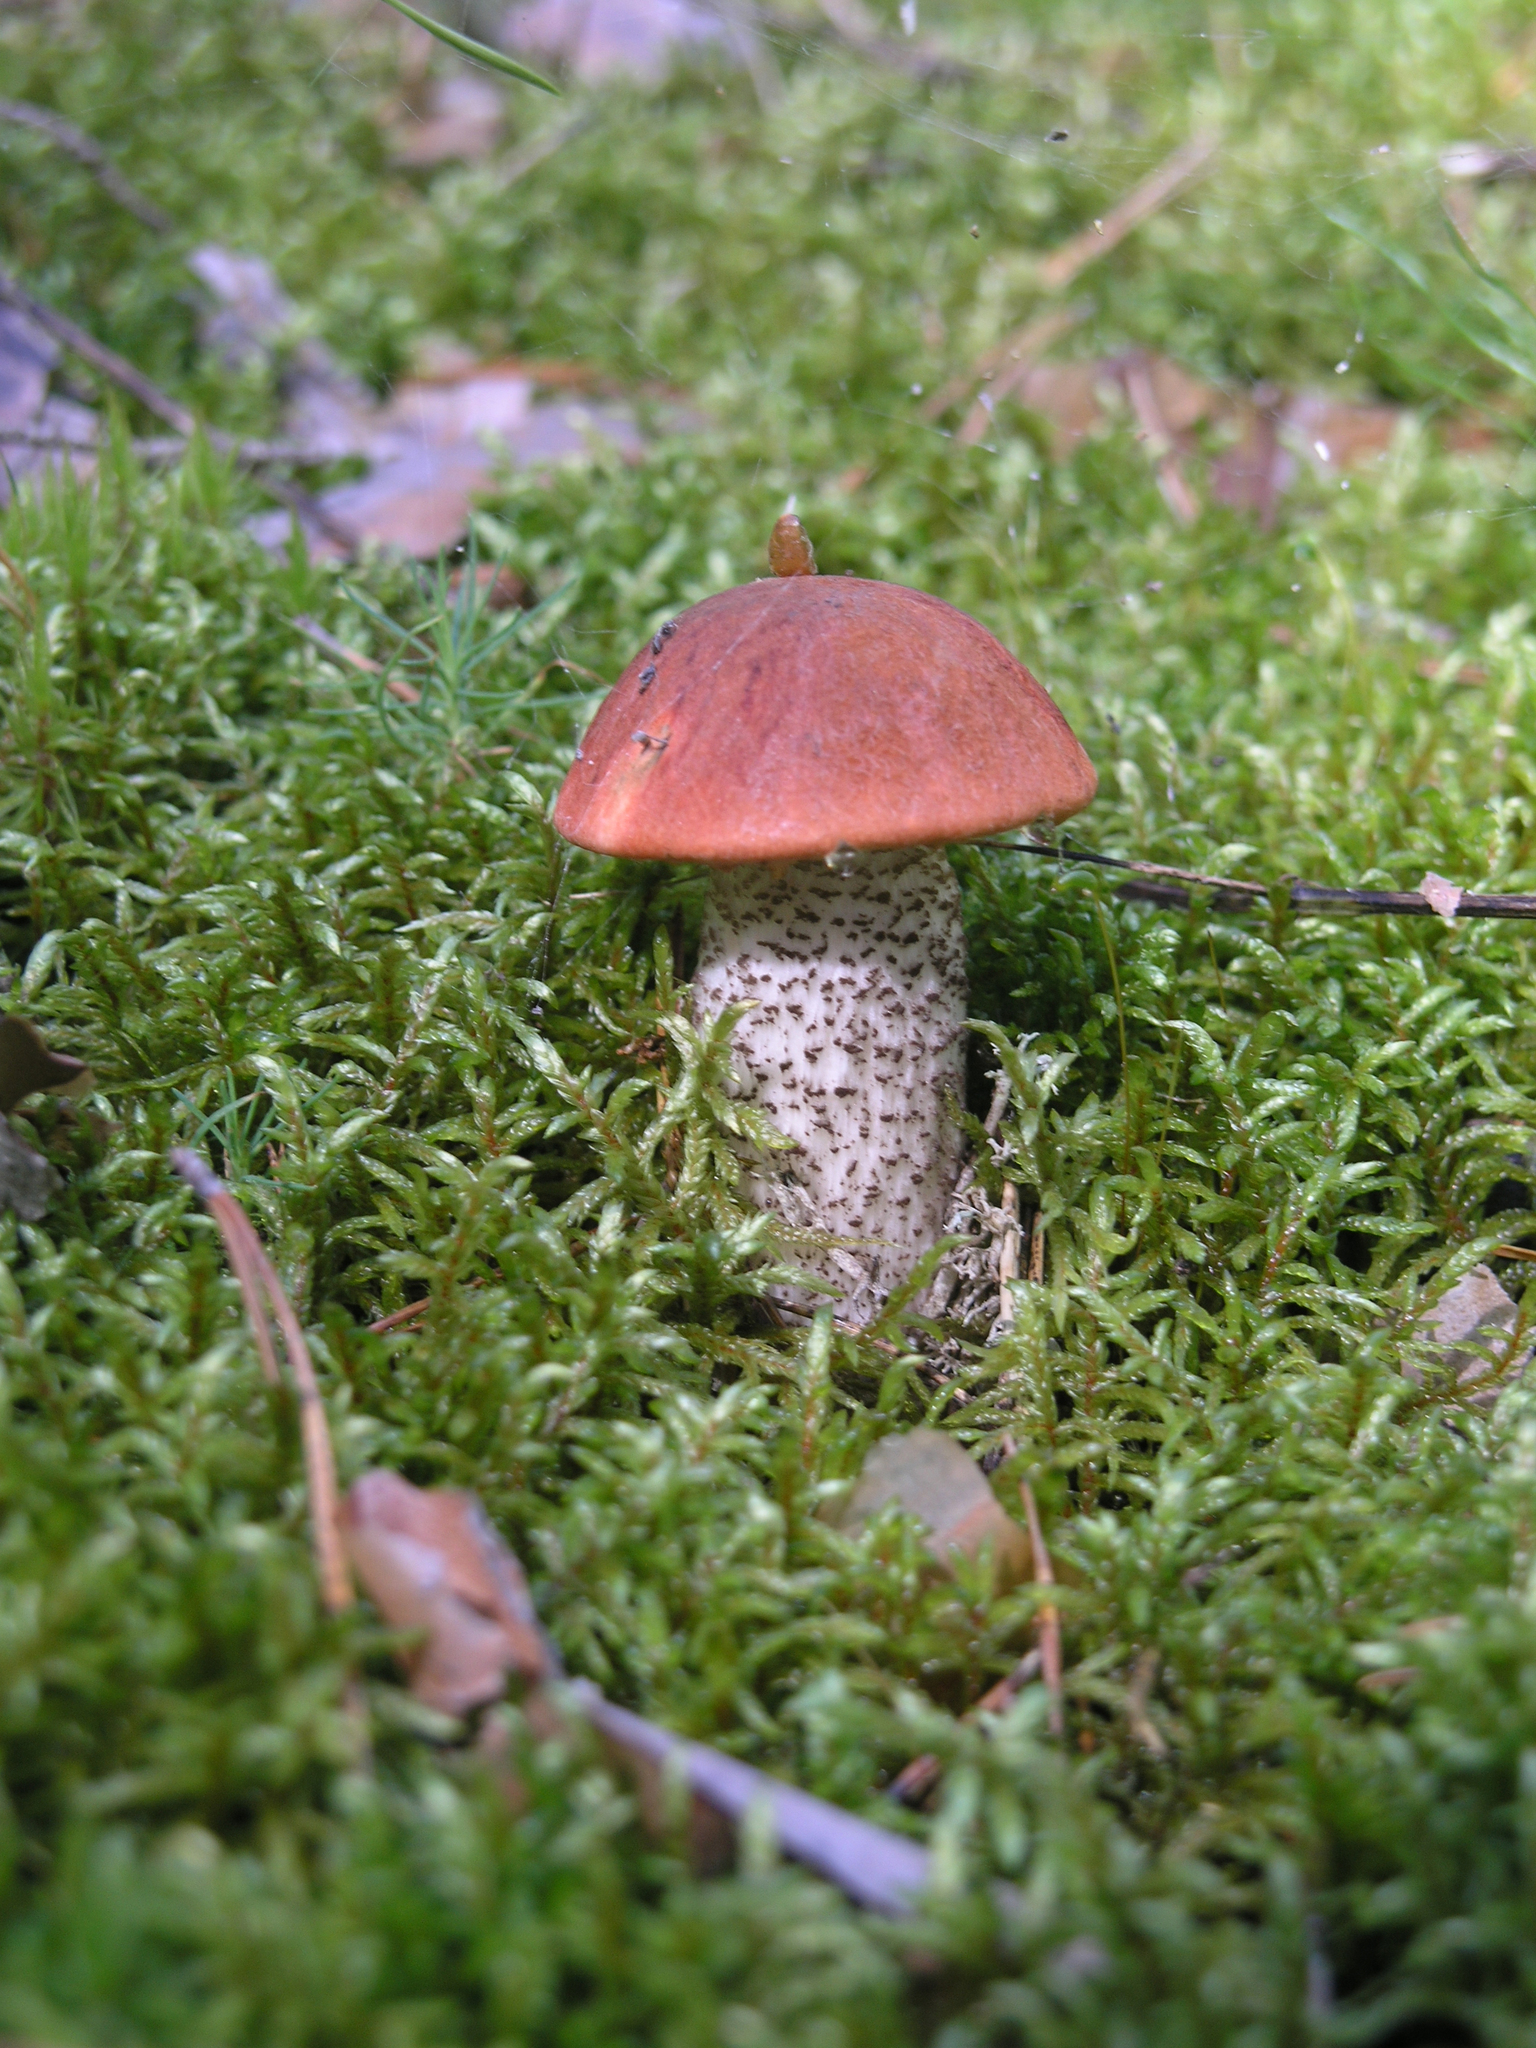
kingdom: Fungi
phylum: Basidiomycota
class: Agaricomycetes
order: Boletales
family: Boletaceae
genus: Leccinum
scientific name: Leccinum vulpinum
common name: Foxy bolete
